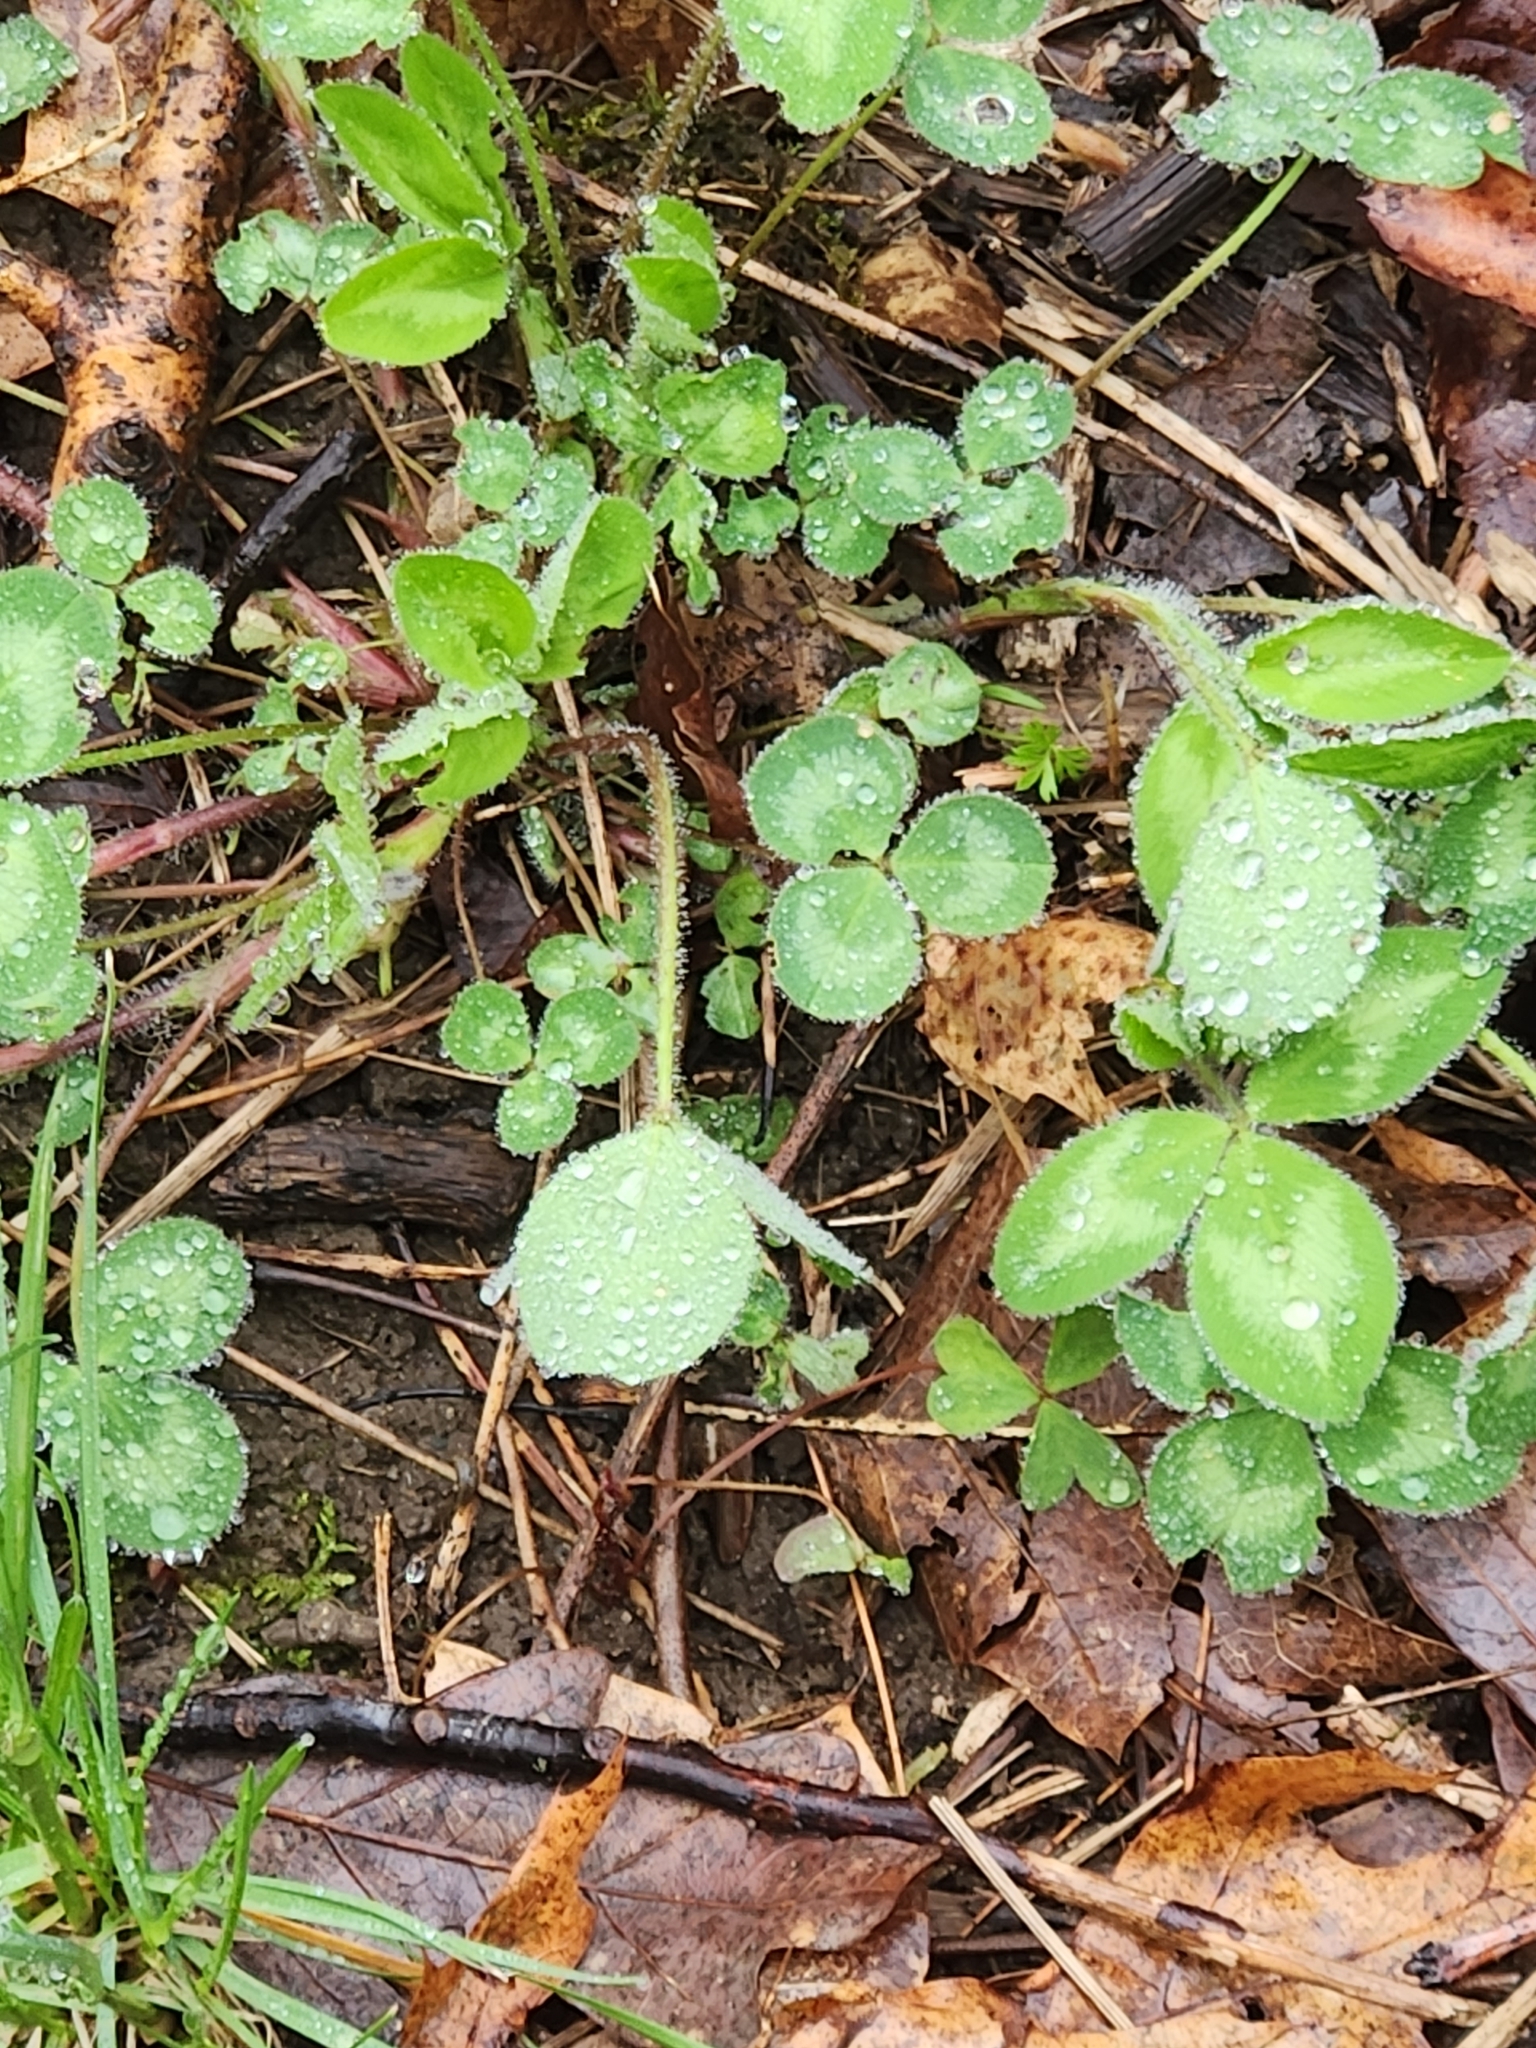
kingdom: Plantae
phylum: Tracheophyta
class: Magnoliopsida
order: Fabales
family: Fabaceae
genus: Trifolium
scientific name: Trifolium pratense
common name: Red clover
